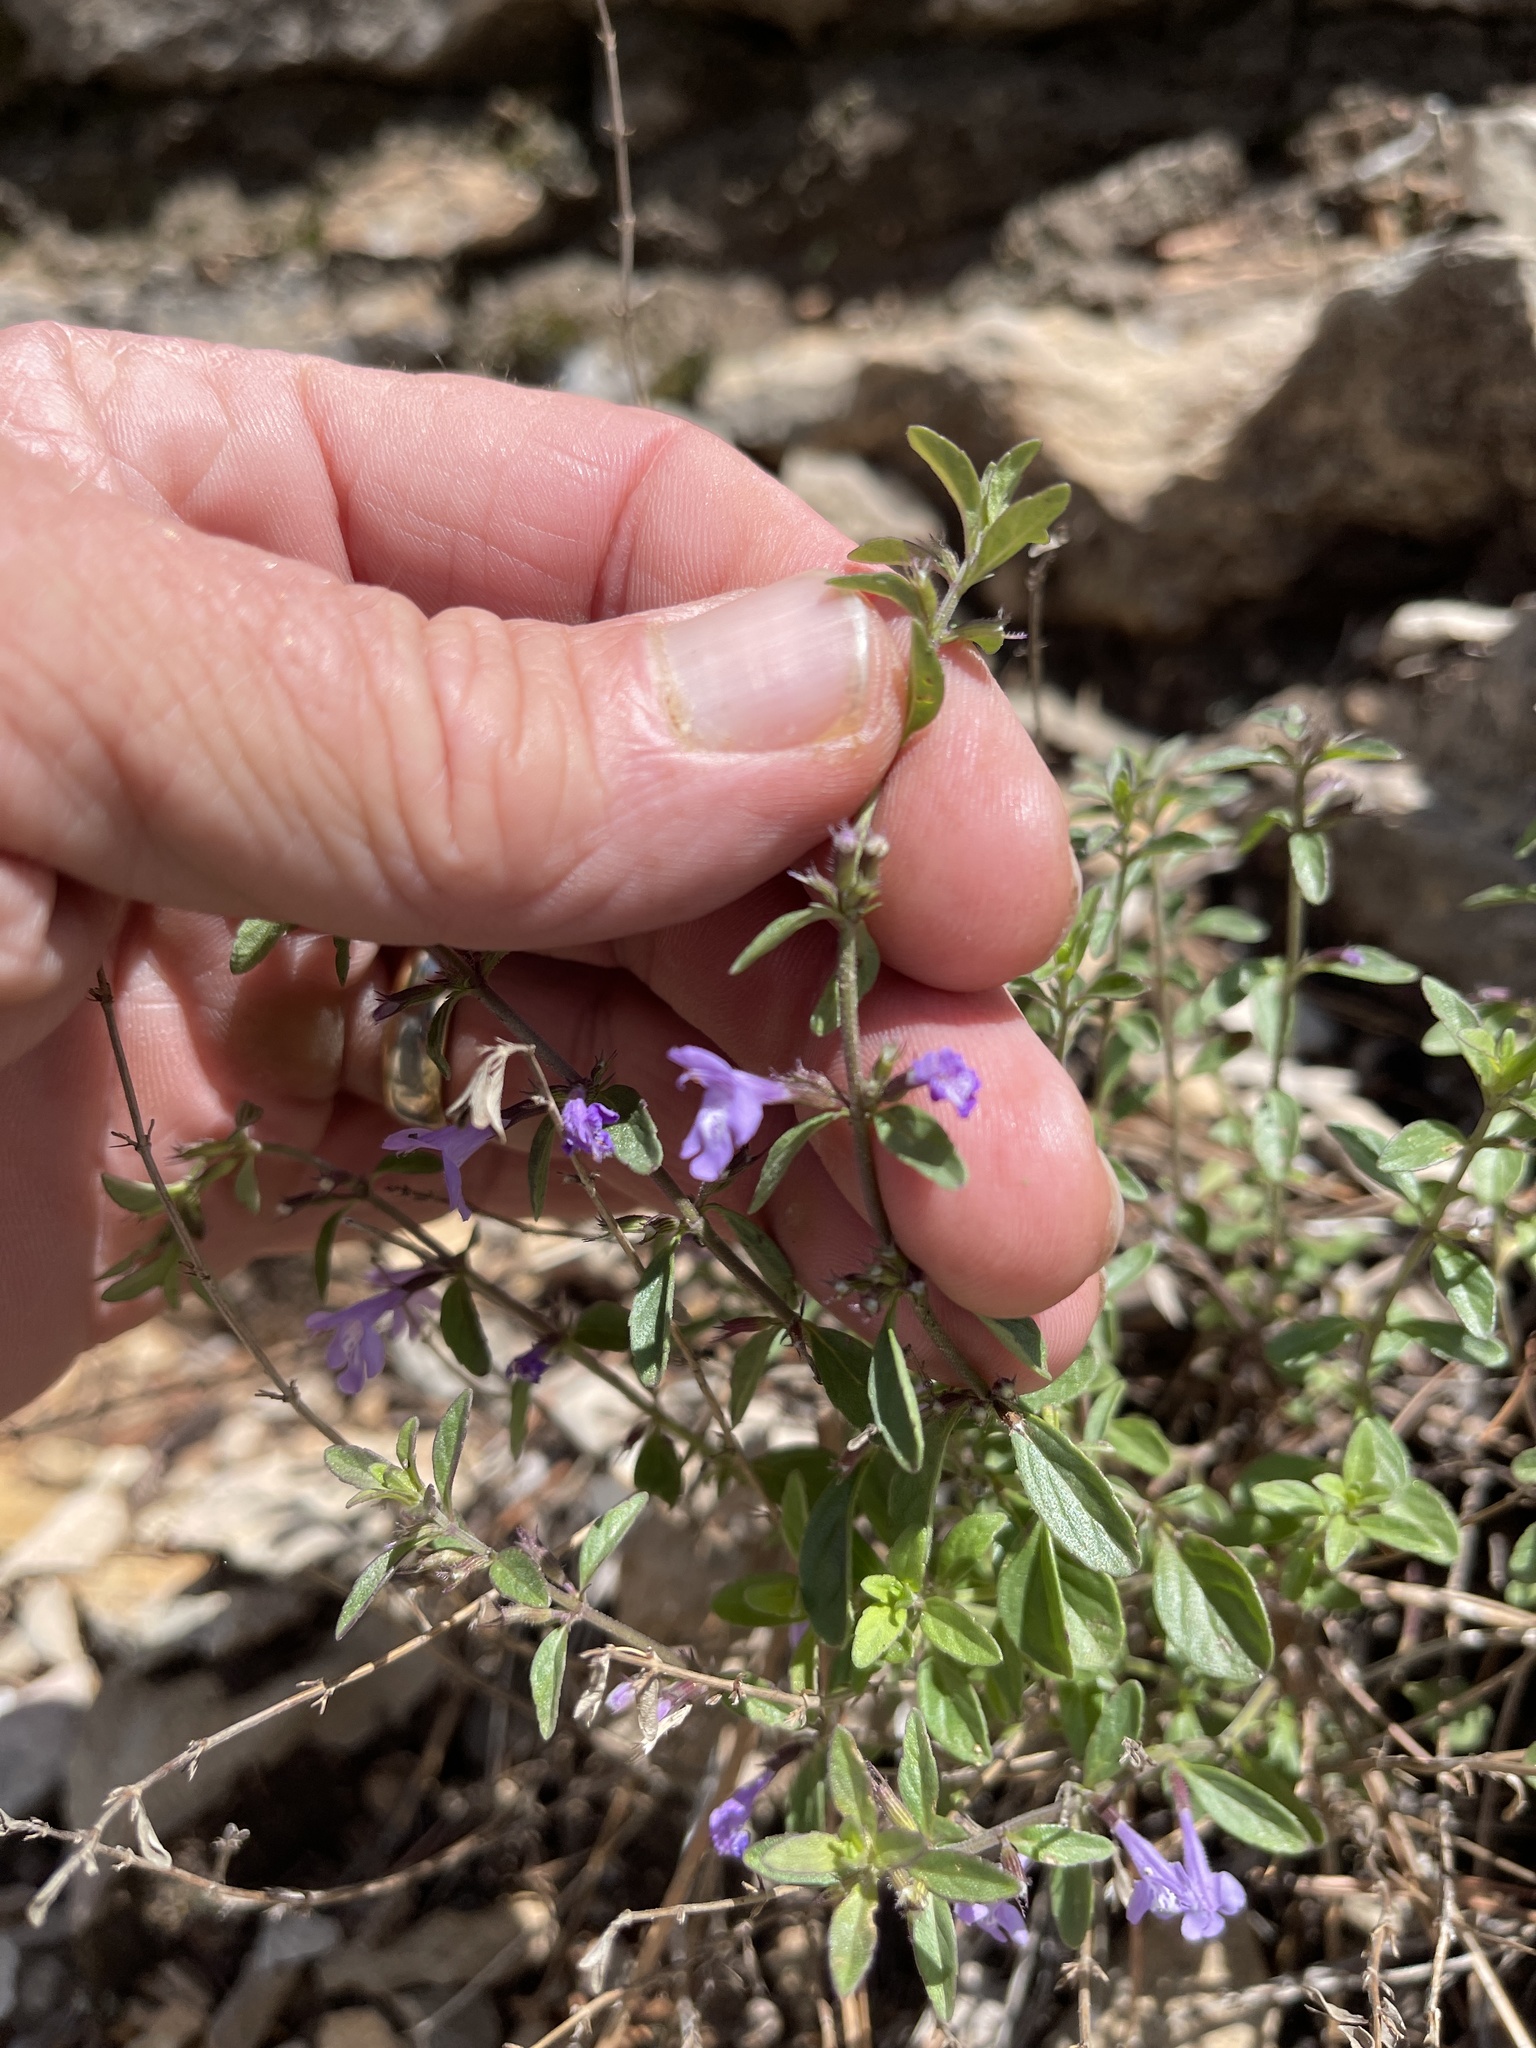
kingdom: Plantae
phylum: Tracheophyta
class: Magnoliopsida
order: Lamiales
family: Lamiaceae
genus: Hedeoma
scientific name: Hedeoma pulcherrima
